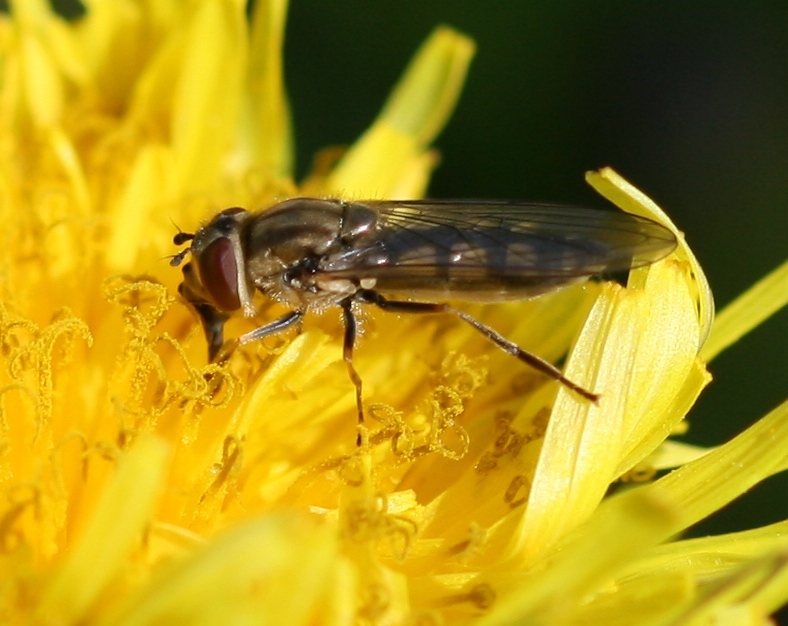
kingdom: Animalia
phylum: Arthropoda
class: Insecta
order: Diptera
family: Syrphidae
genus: Platycheirus
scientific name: Platycheirus manicatus
